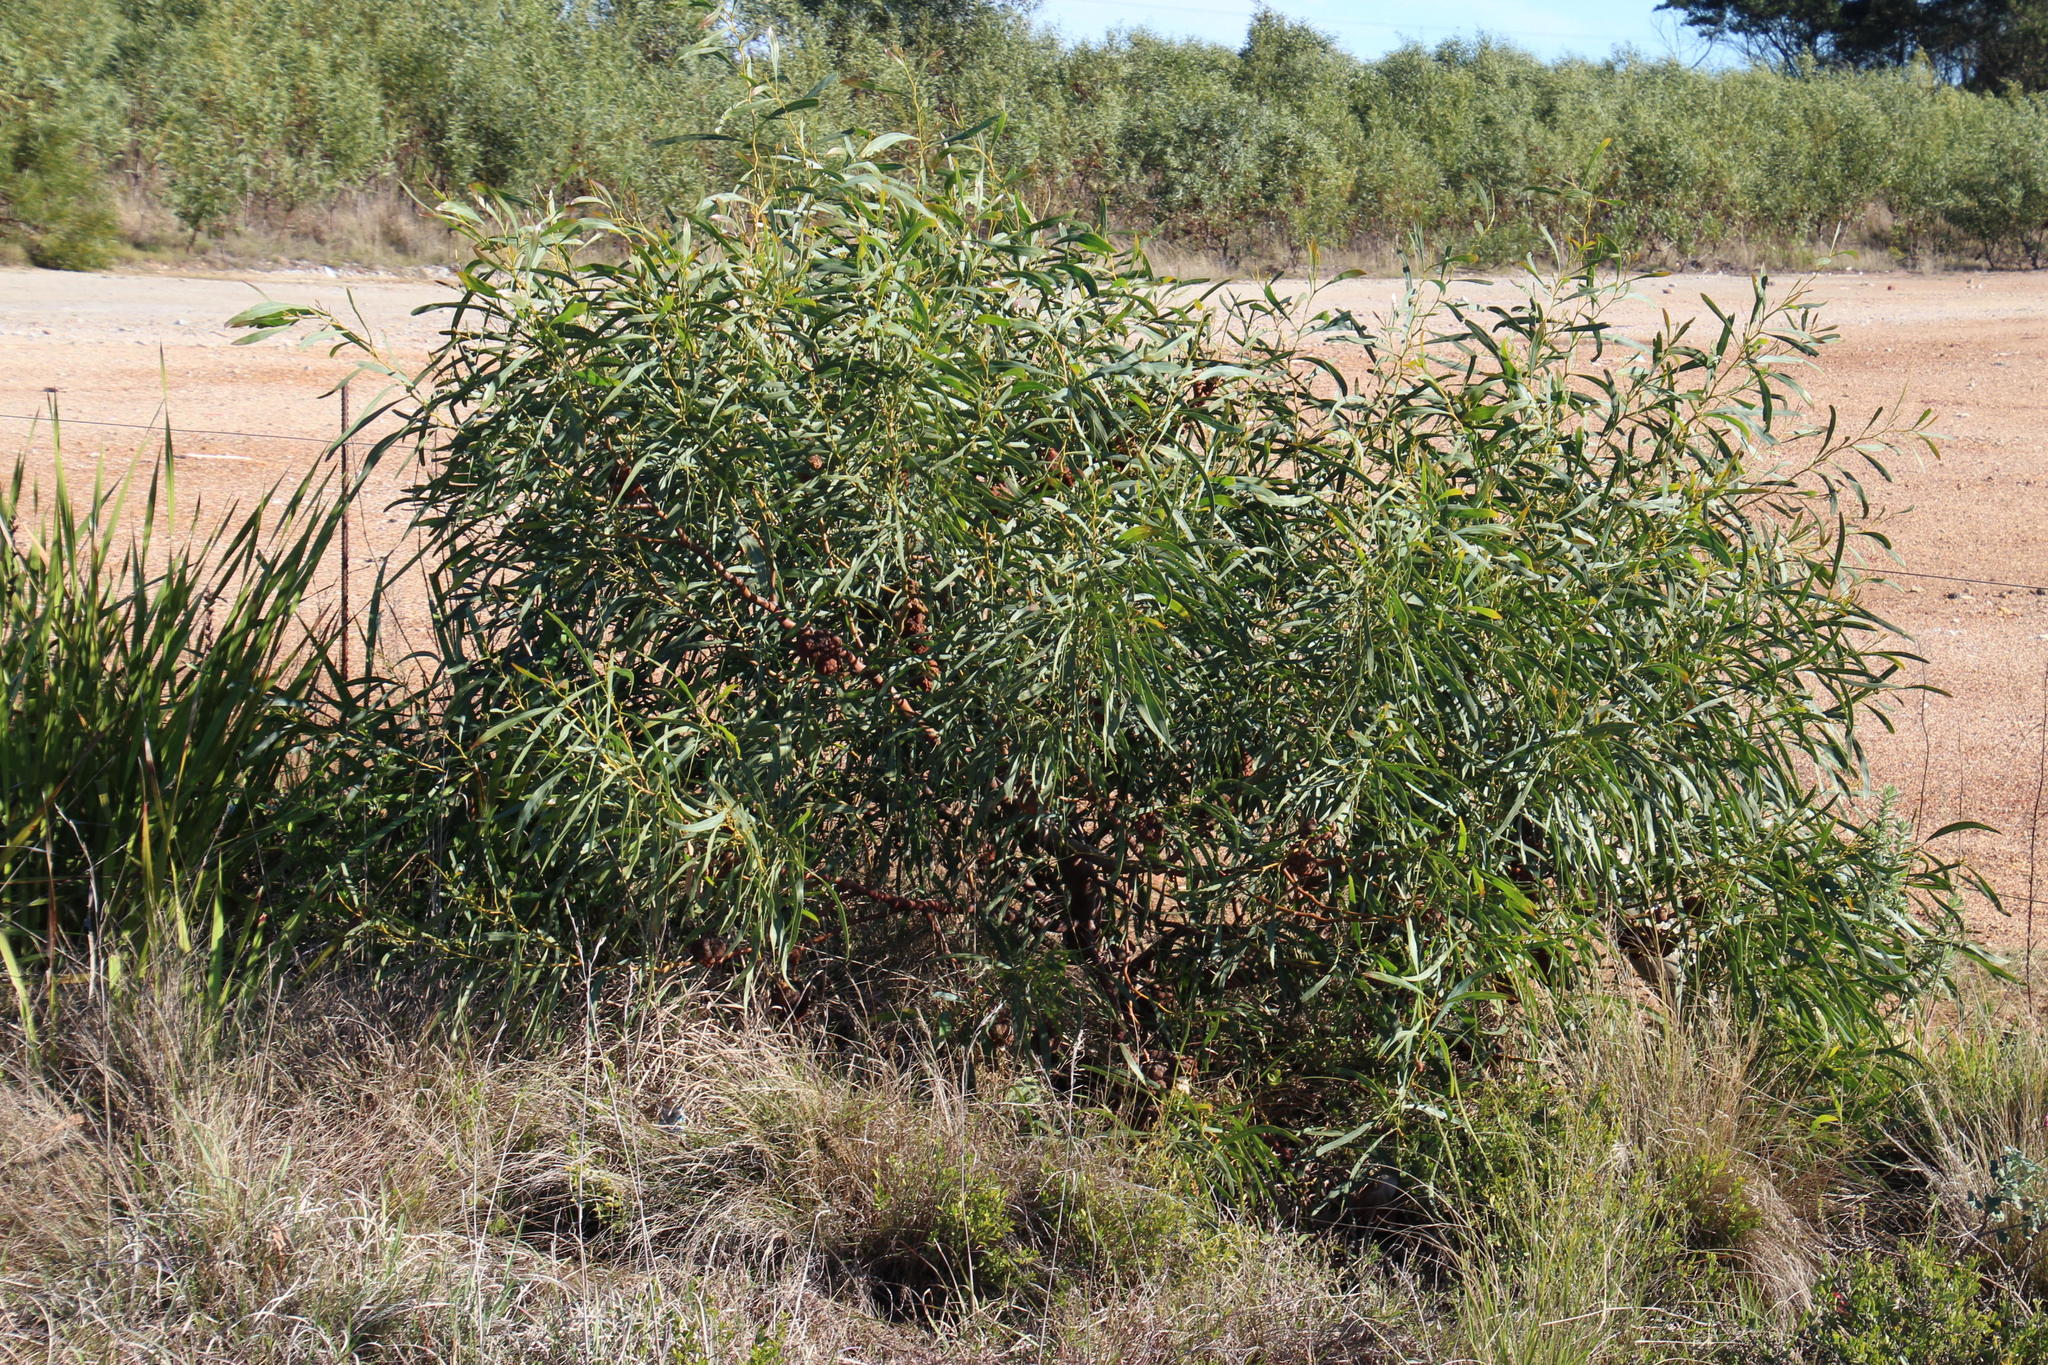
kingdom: Plantae
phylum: Tracheophyta
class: Magnoliopsida
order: Fabales
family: Fabaceae
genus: Acacia
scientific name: Acacia saligna
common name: Orange wattle
